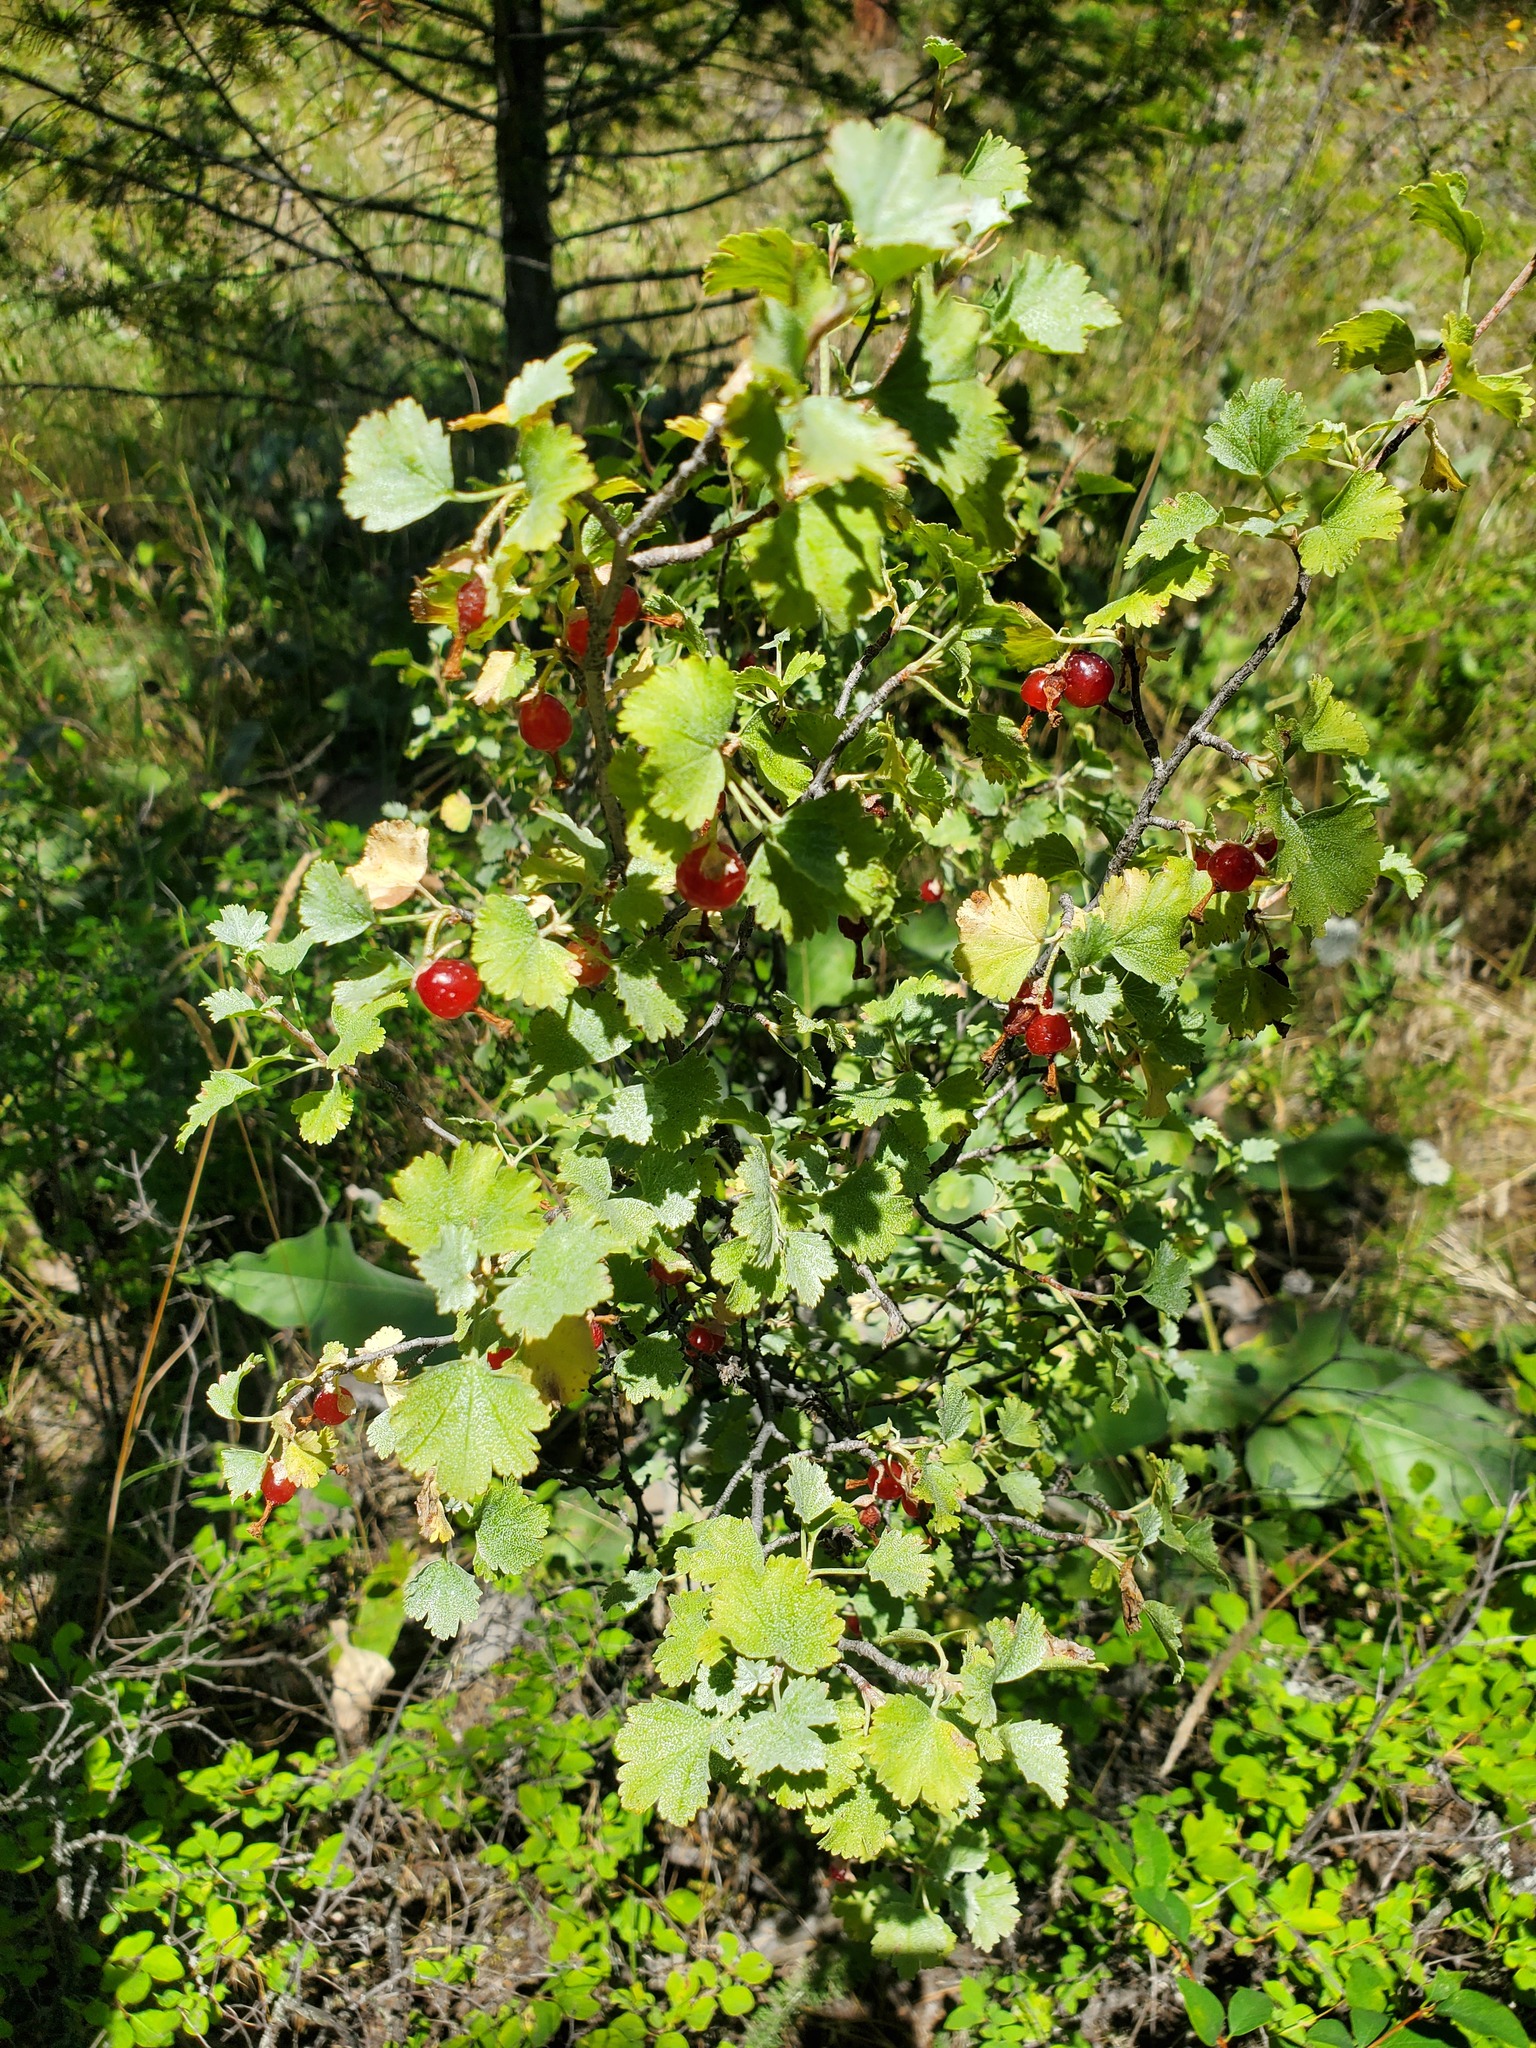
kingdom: Plantae
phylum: Tracheophyta
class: Magnoliopsida
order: Saxifragales
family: Grossulariaceae
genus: Ribes
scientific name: Ribes cereum
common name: Wax currant
